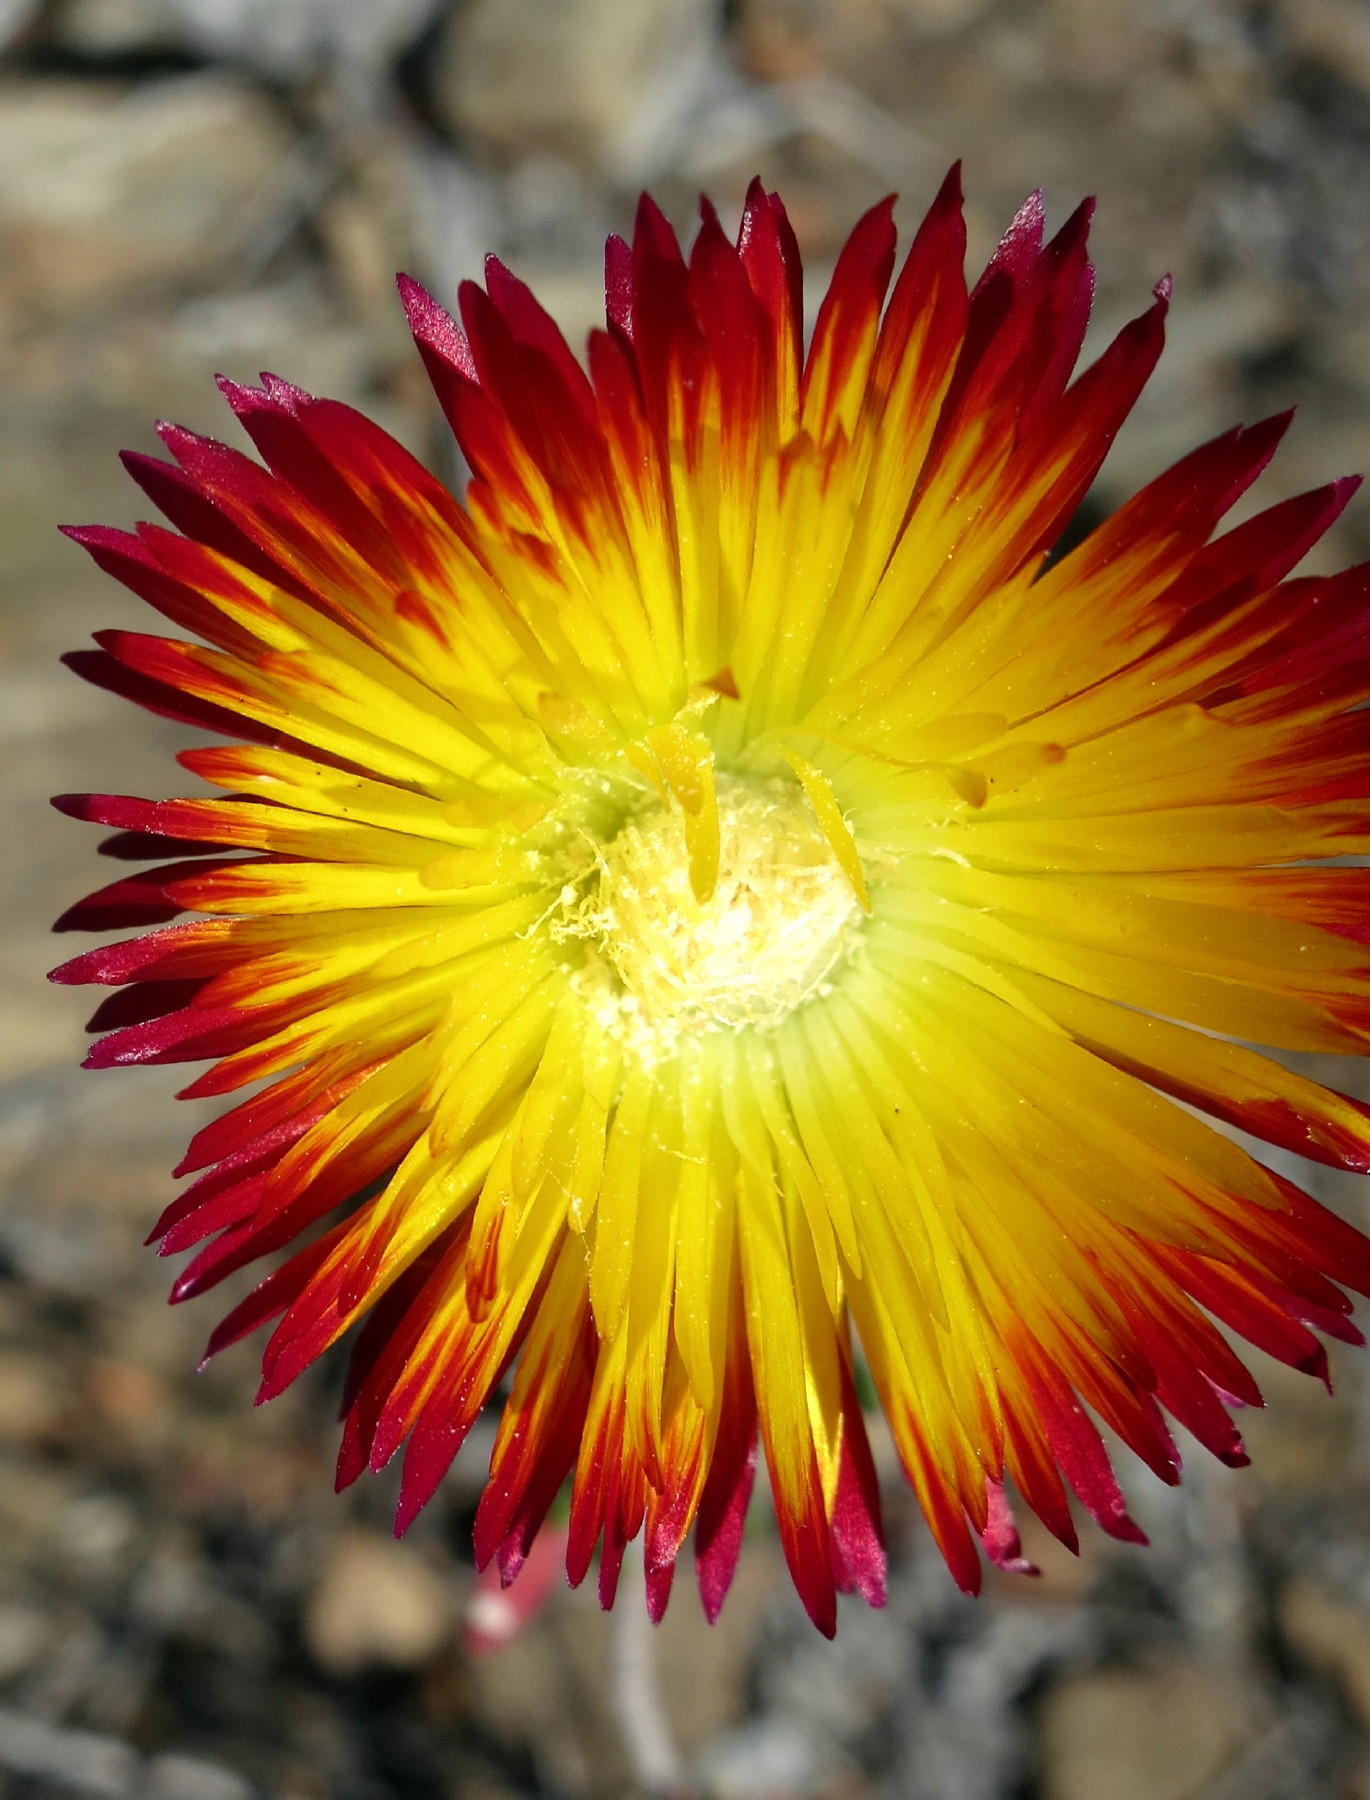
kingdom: Plantae
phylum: Tracheophyta
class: Magnoliopsida
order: Caryophyllales
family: Aizoaceae
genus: Drosanthemum
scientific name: Drosanthemum bicolor
